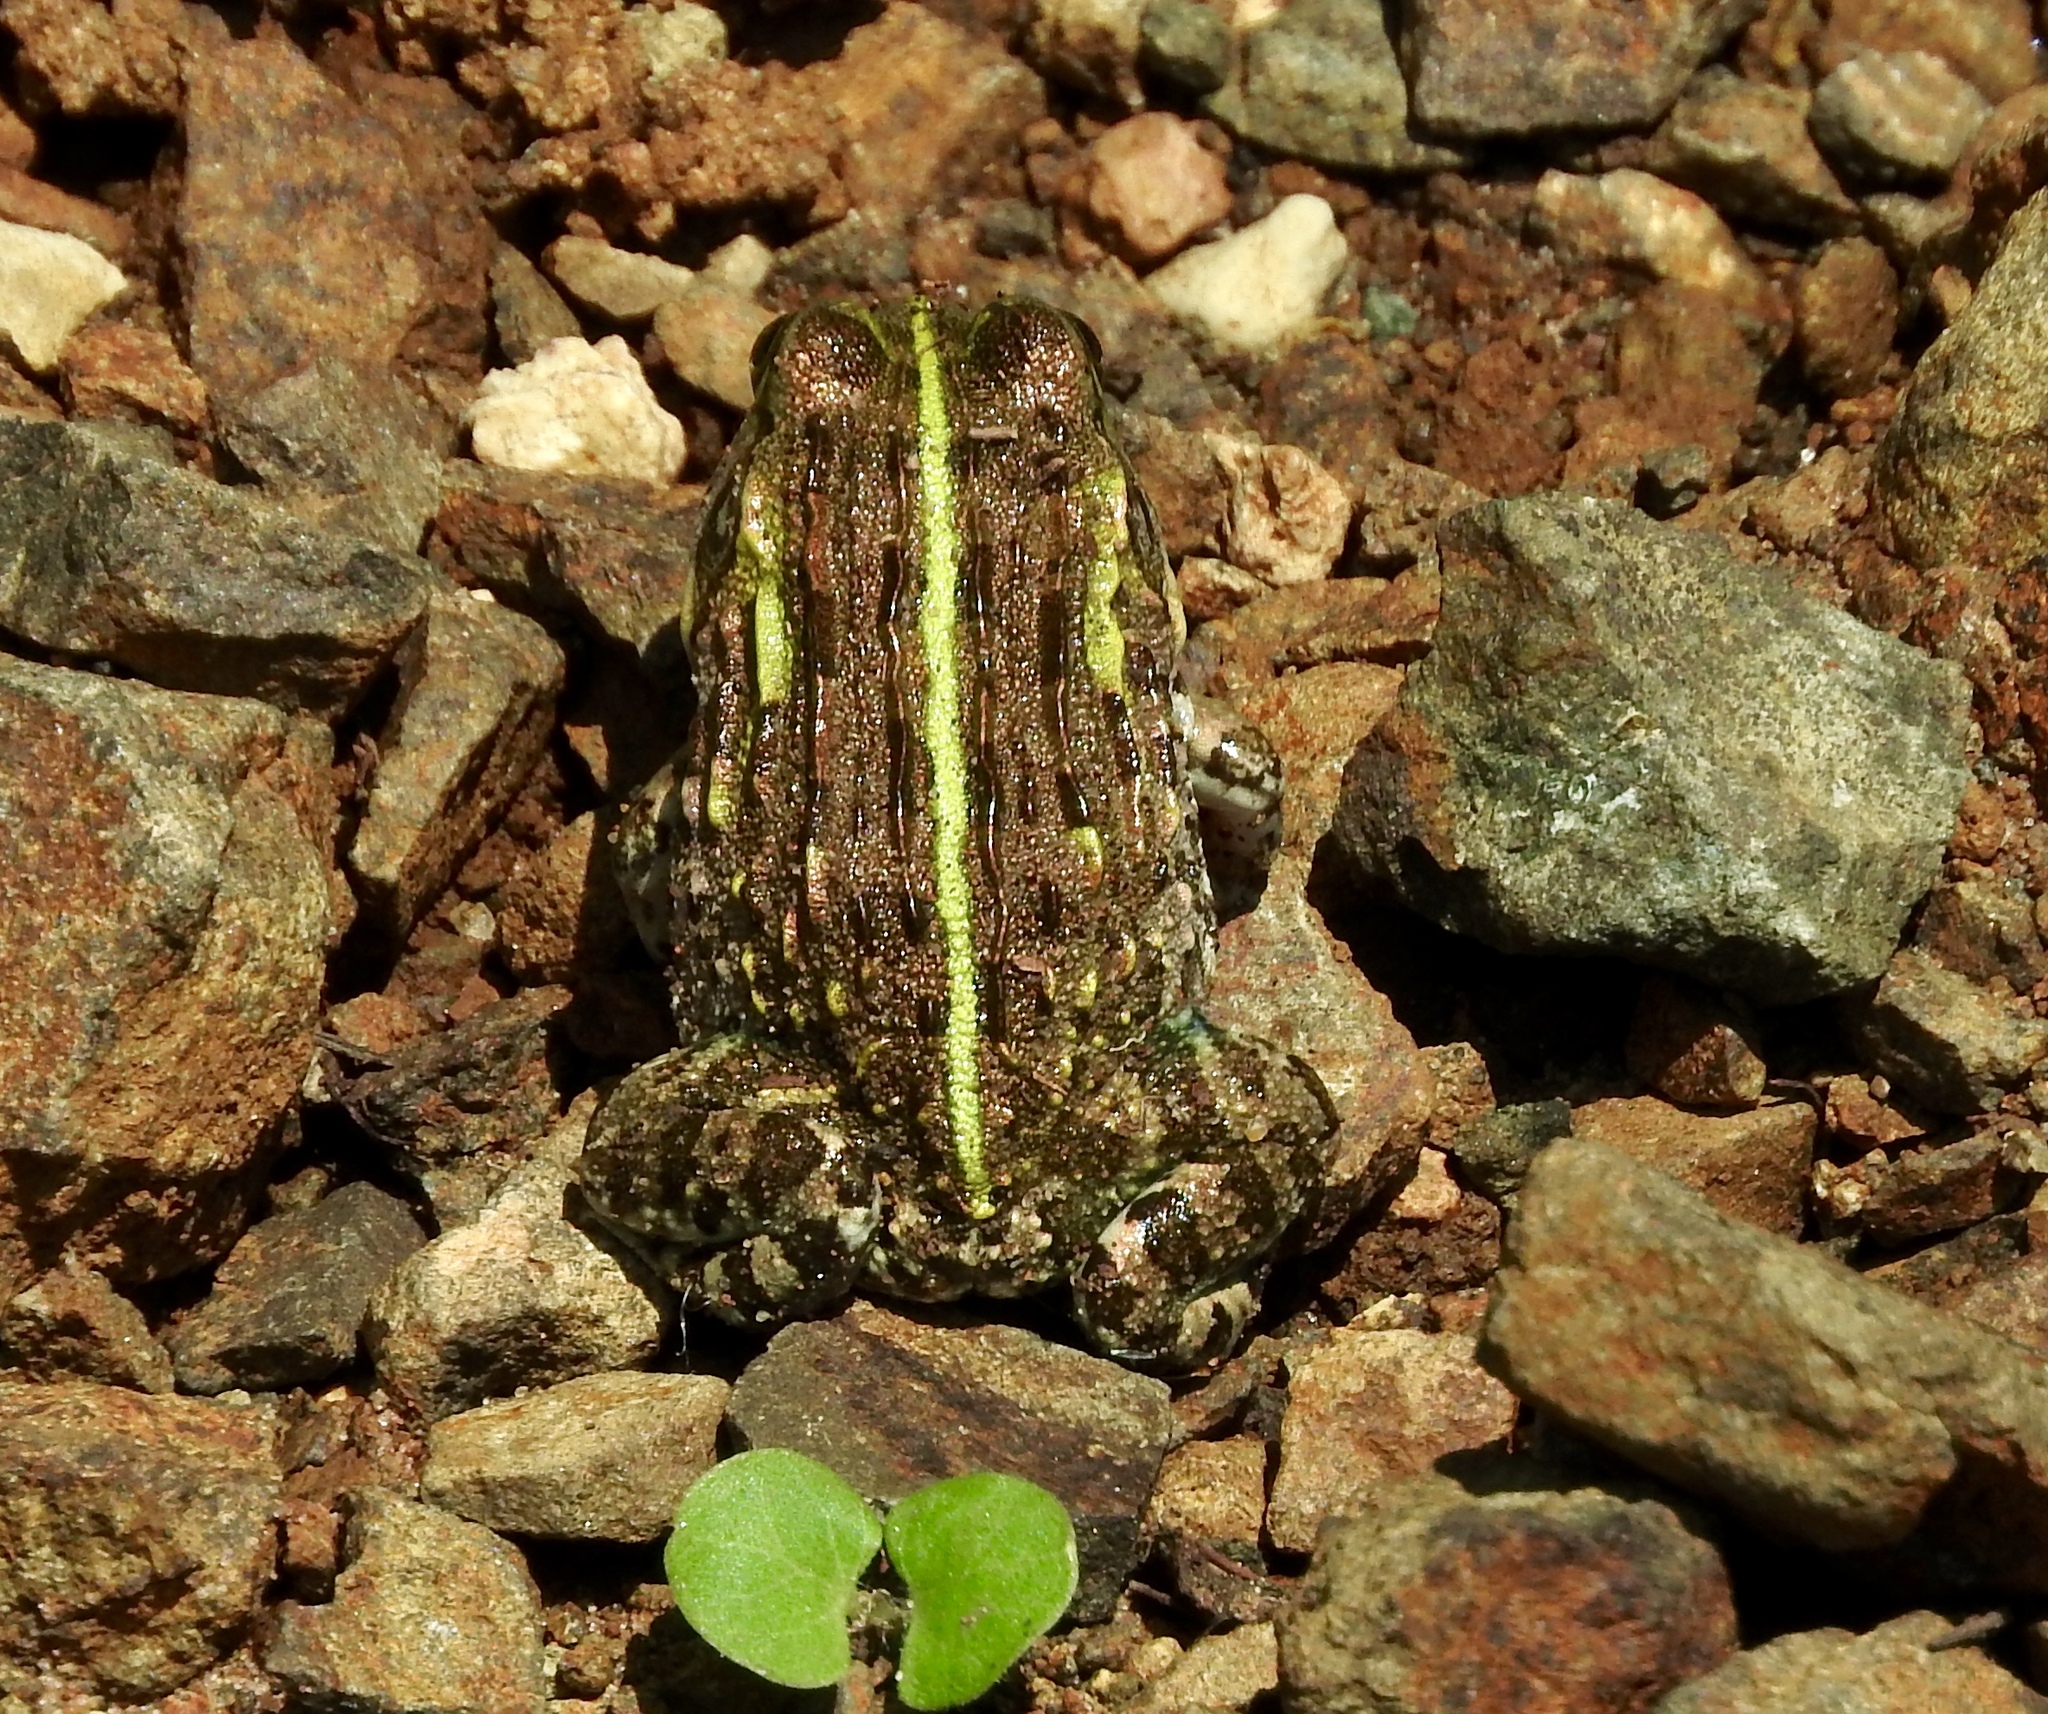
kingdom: Animalia
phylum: Chordata
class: Amphibia
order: Anura
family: Pyxicephalidae
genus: Pyxicephalus
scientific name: Pyxicephalus edulis
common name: Peter's bullfrog
